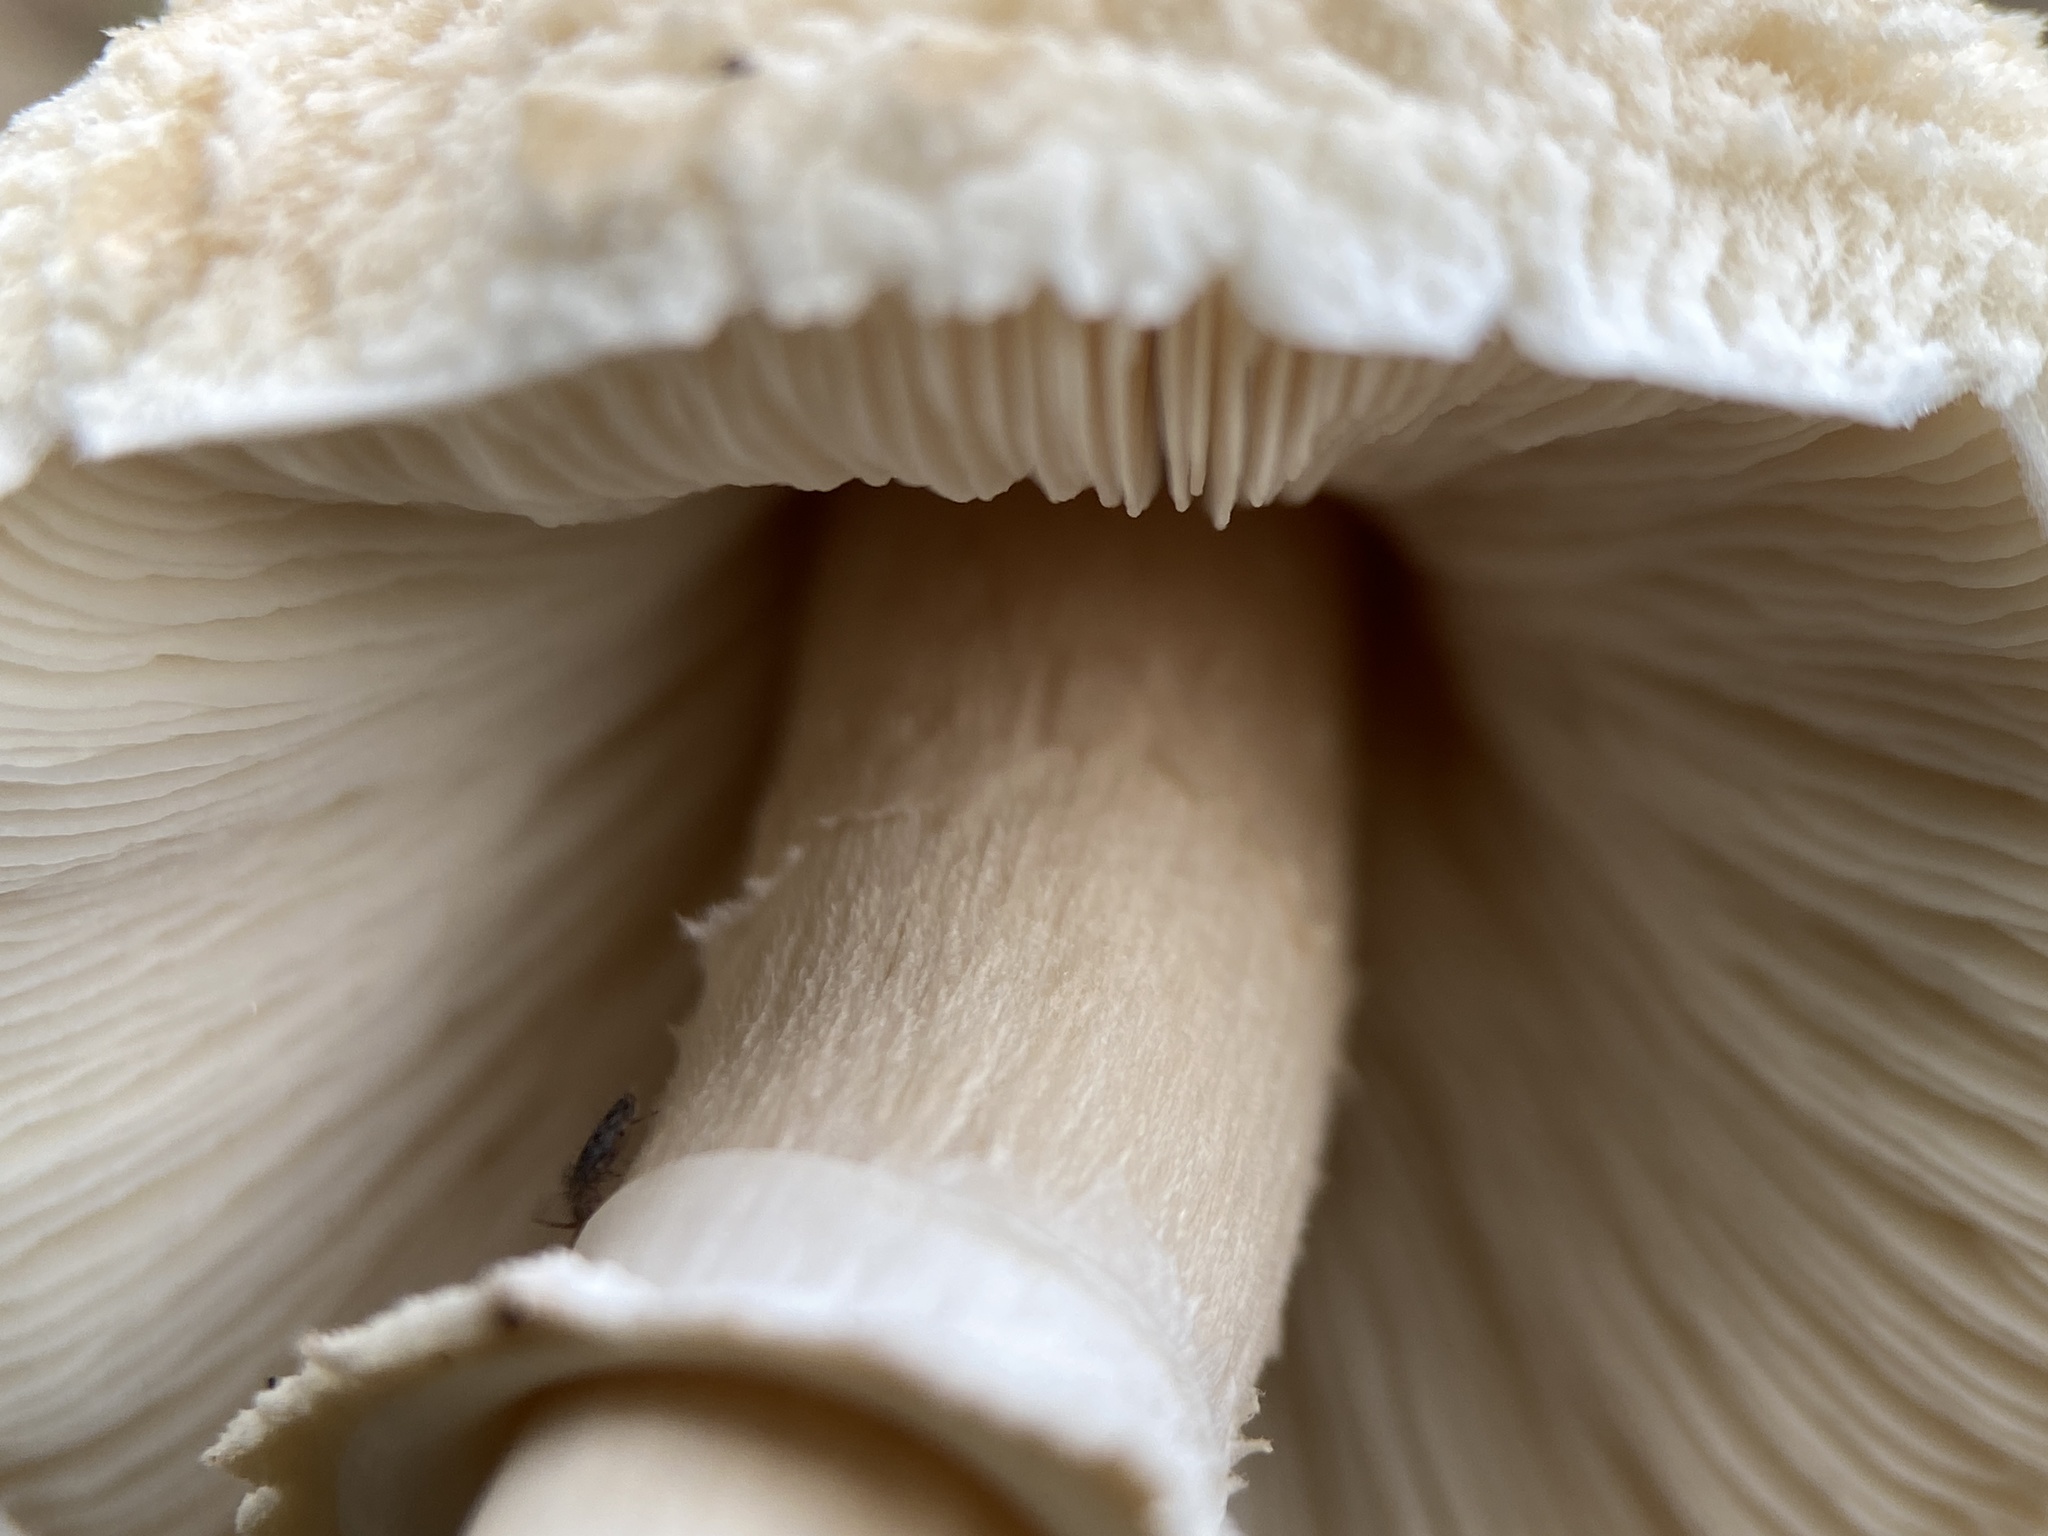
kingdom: Fungi
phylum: Basidiomycota
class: Agaricomycetes
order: Agaricales
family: Agaricaceae
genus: Macrolepiota
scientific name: Macrolepiota clelandii
